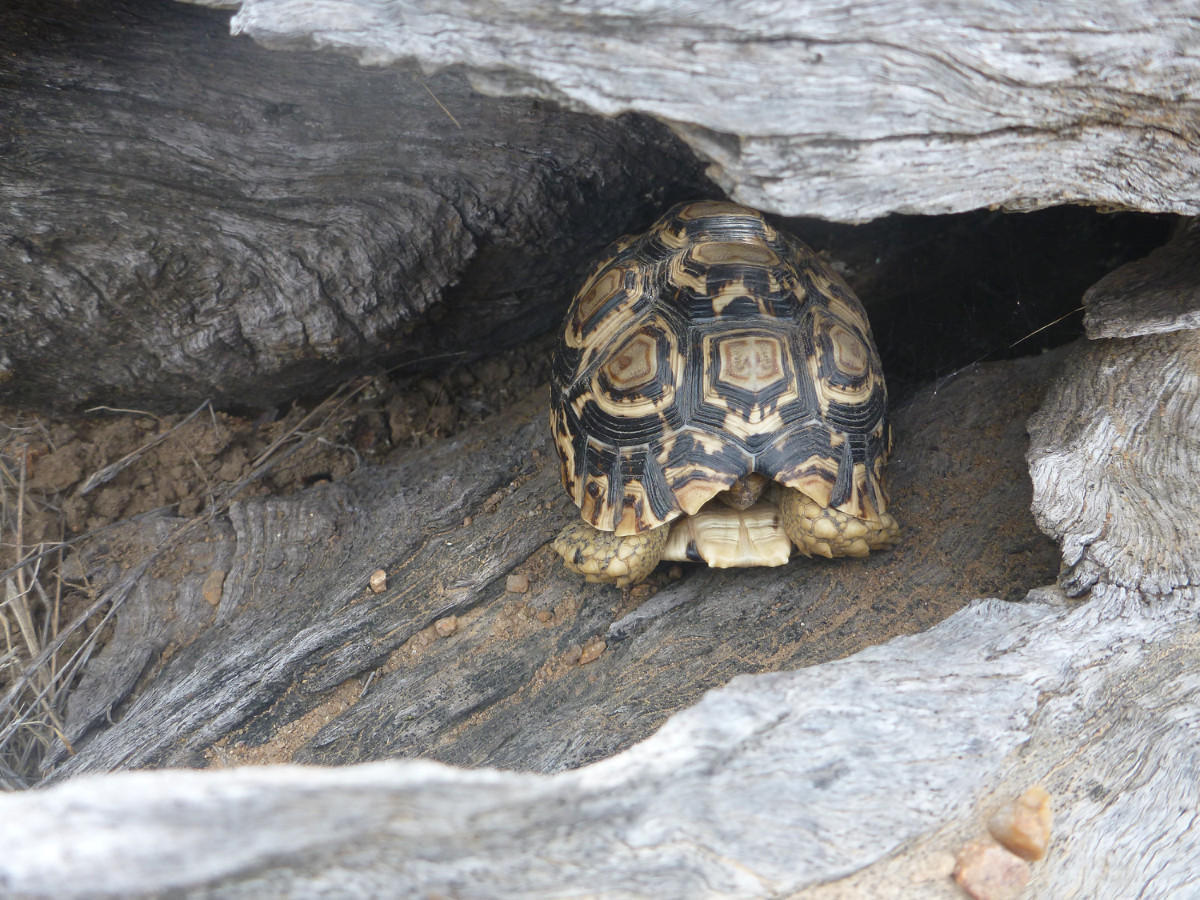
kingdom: Animalia
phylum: Chordata
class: Testudines
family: Testudinidae
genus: Stigmochelys
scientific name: Stigmochelys pardalis
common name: Leopard tortoise
